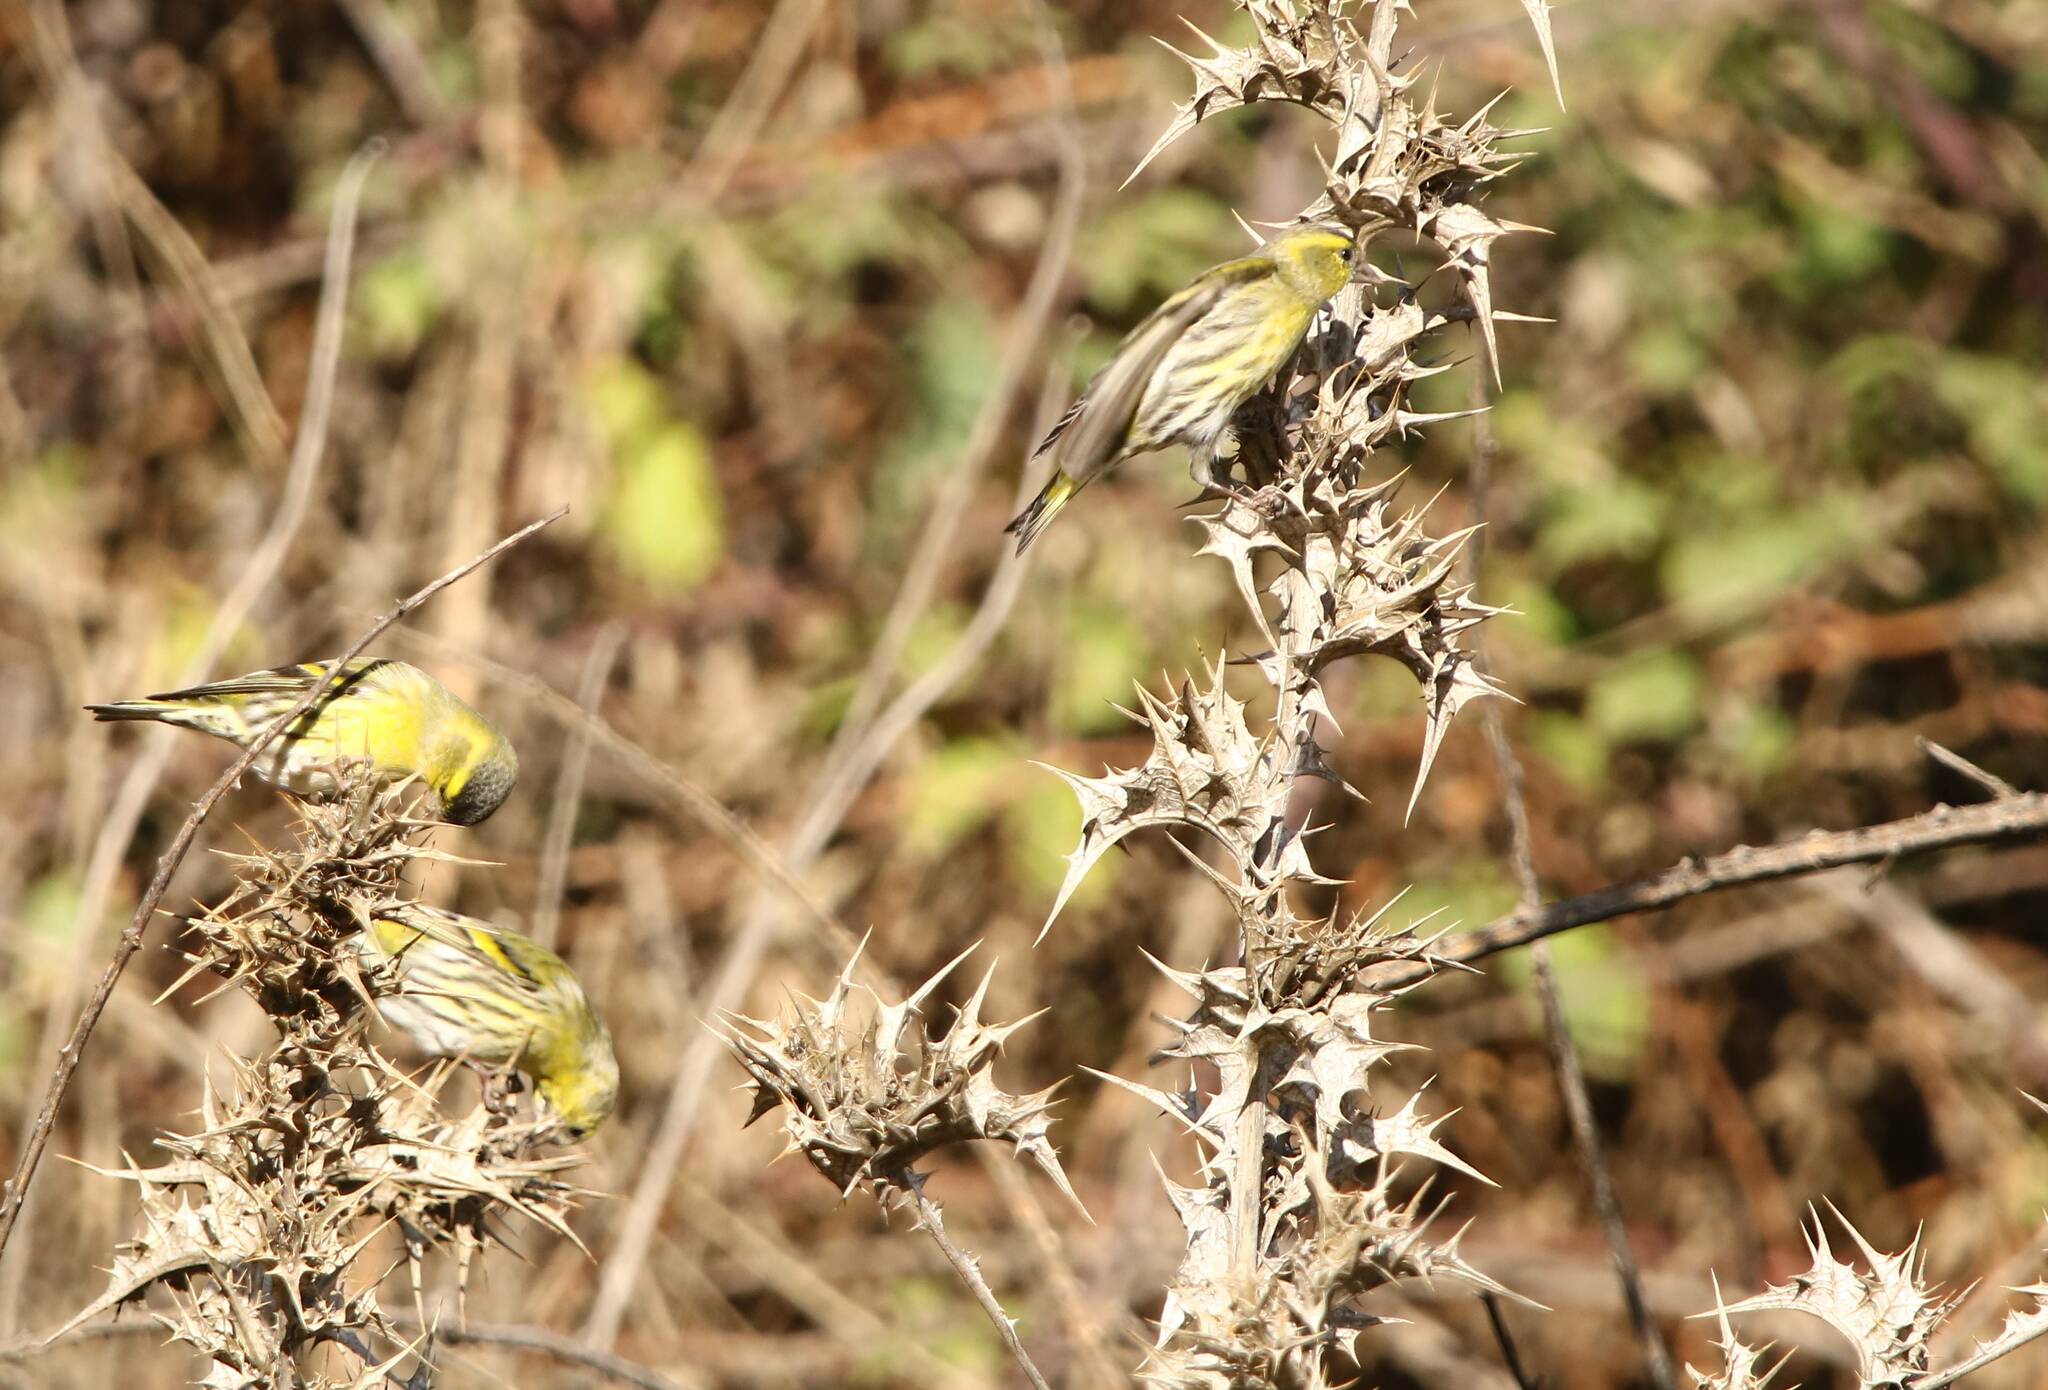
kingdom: Animalia
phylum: Chordata
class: Aves
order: Passeriformes
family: Fringillidae
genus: Spinus
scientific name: Spinus spinus
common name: Eurasian siskin
